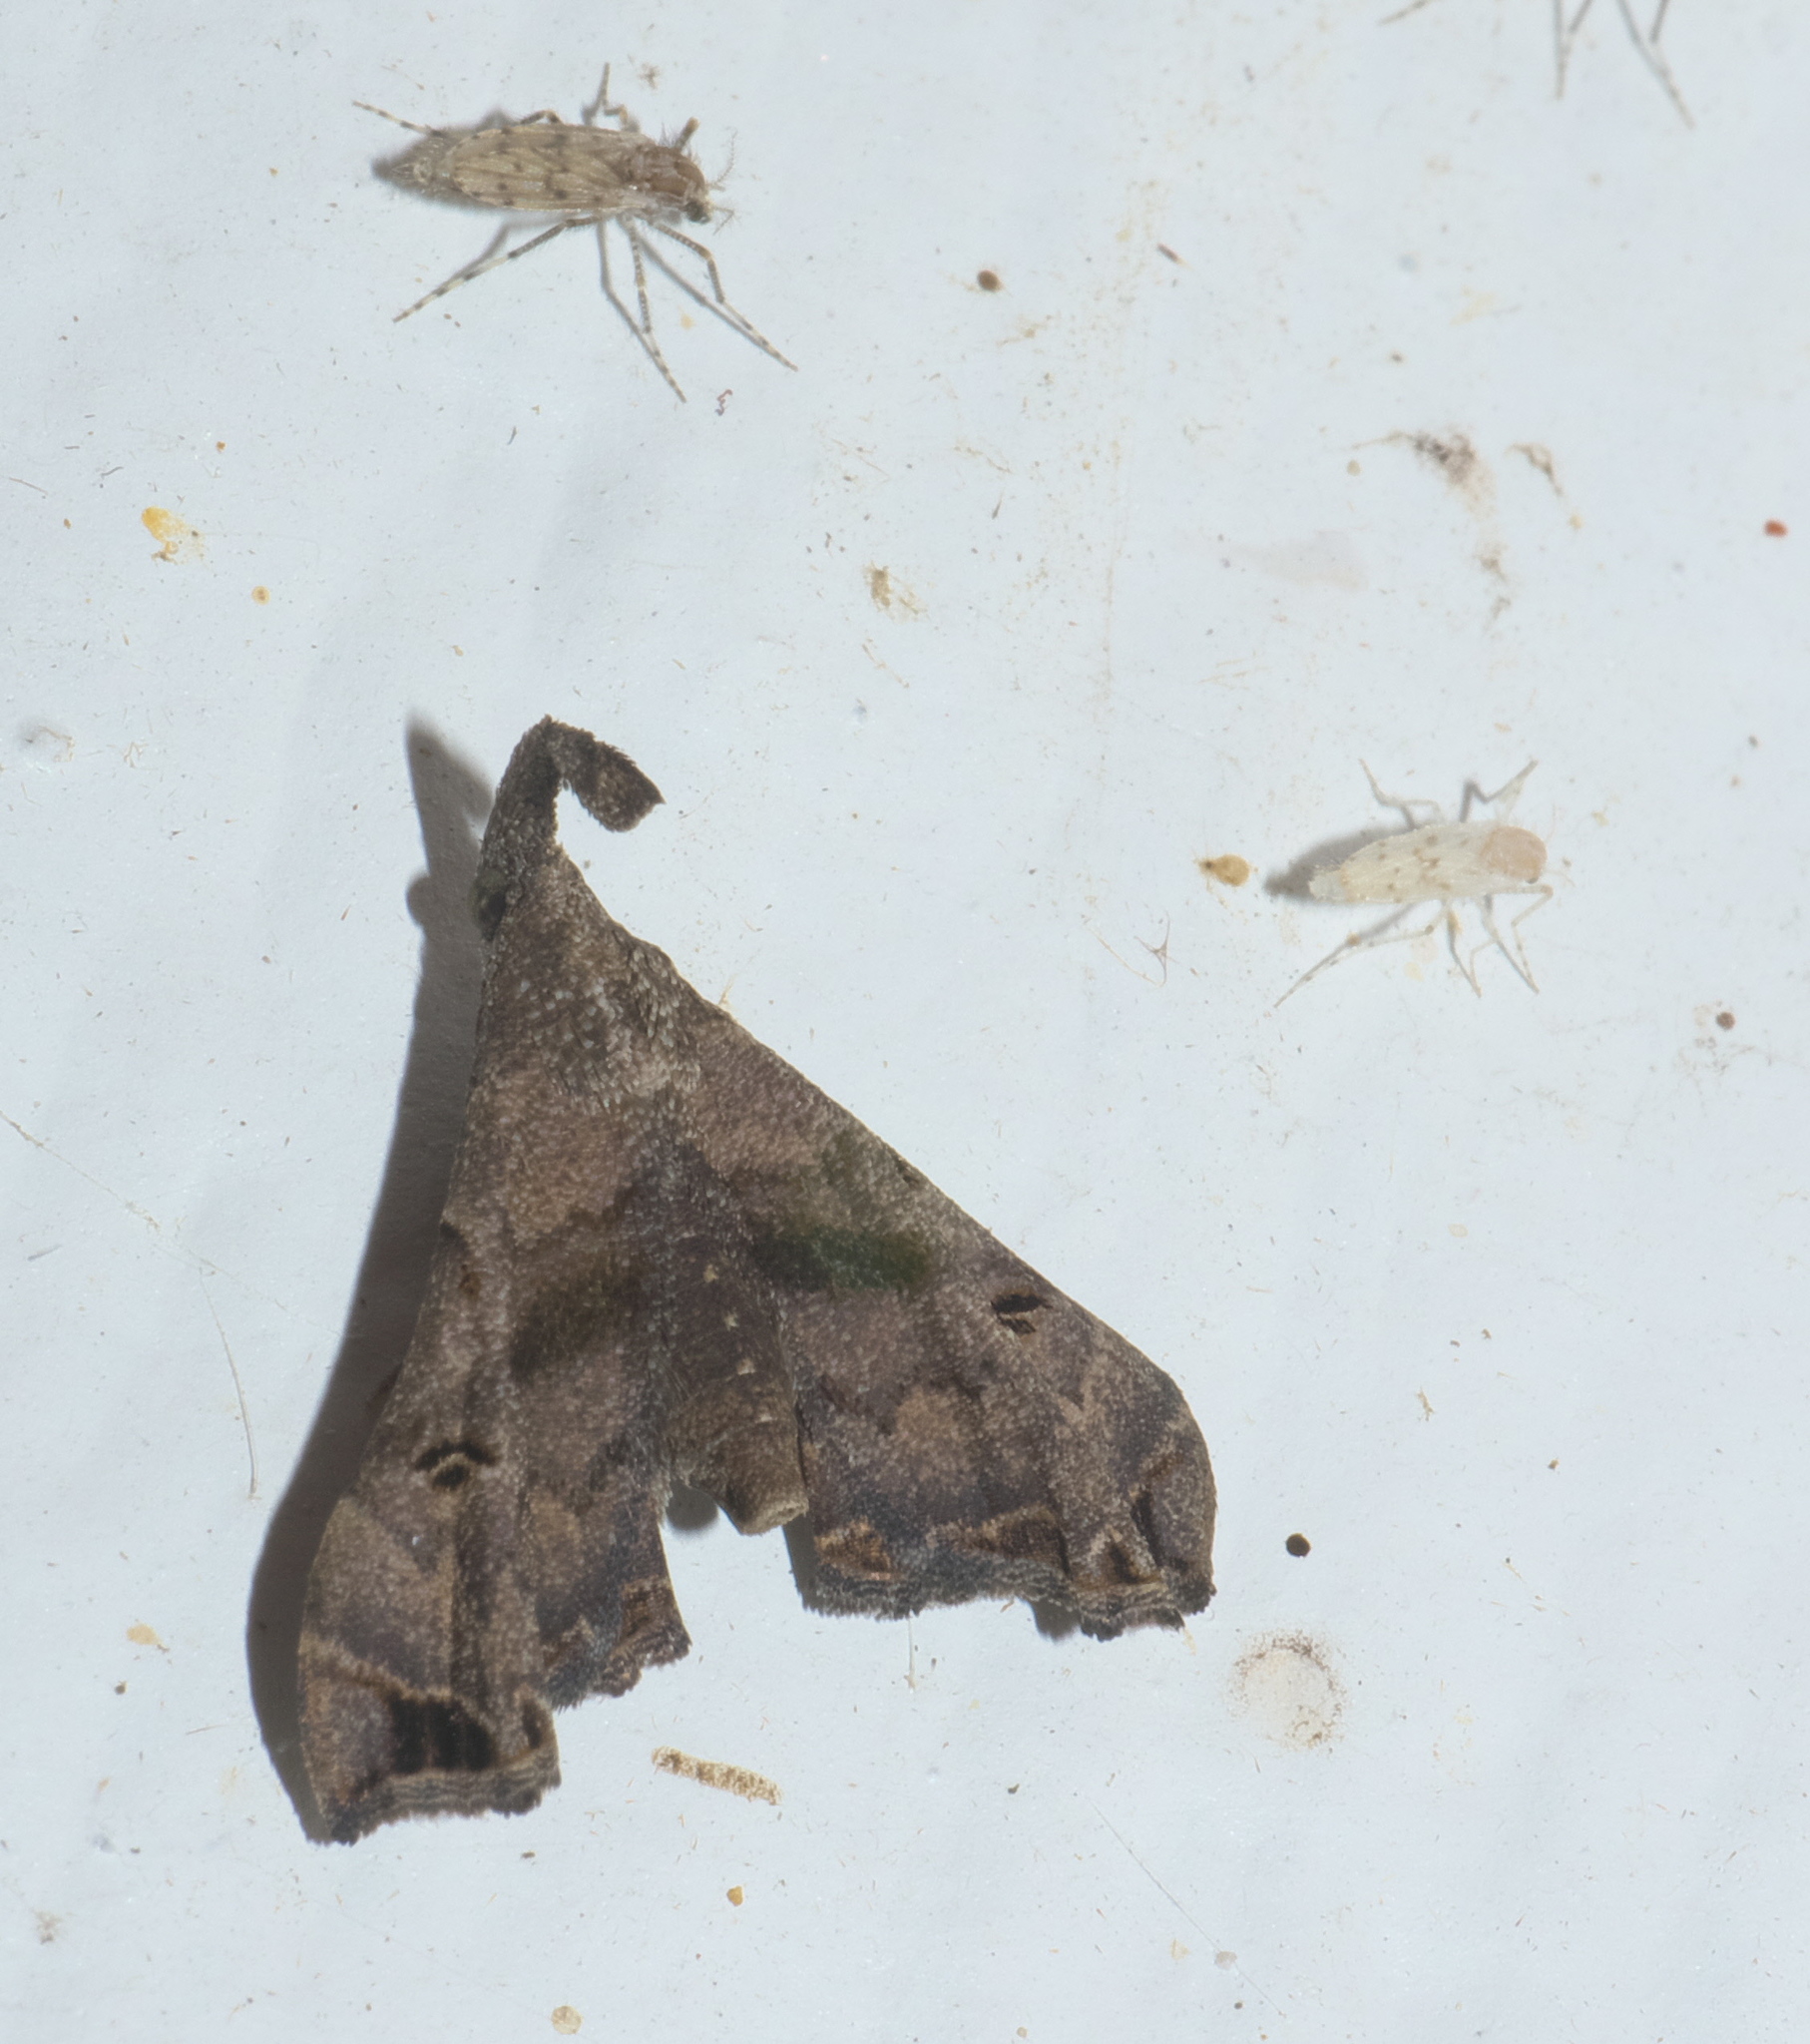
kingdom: Animalia
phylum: Arthropoda
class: Insecta
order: Lepidoptera
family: Erebidae
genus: Palthis
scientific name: Palthis asopialis
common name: Faint-spotted palthis moth
